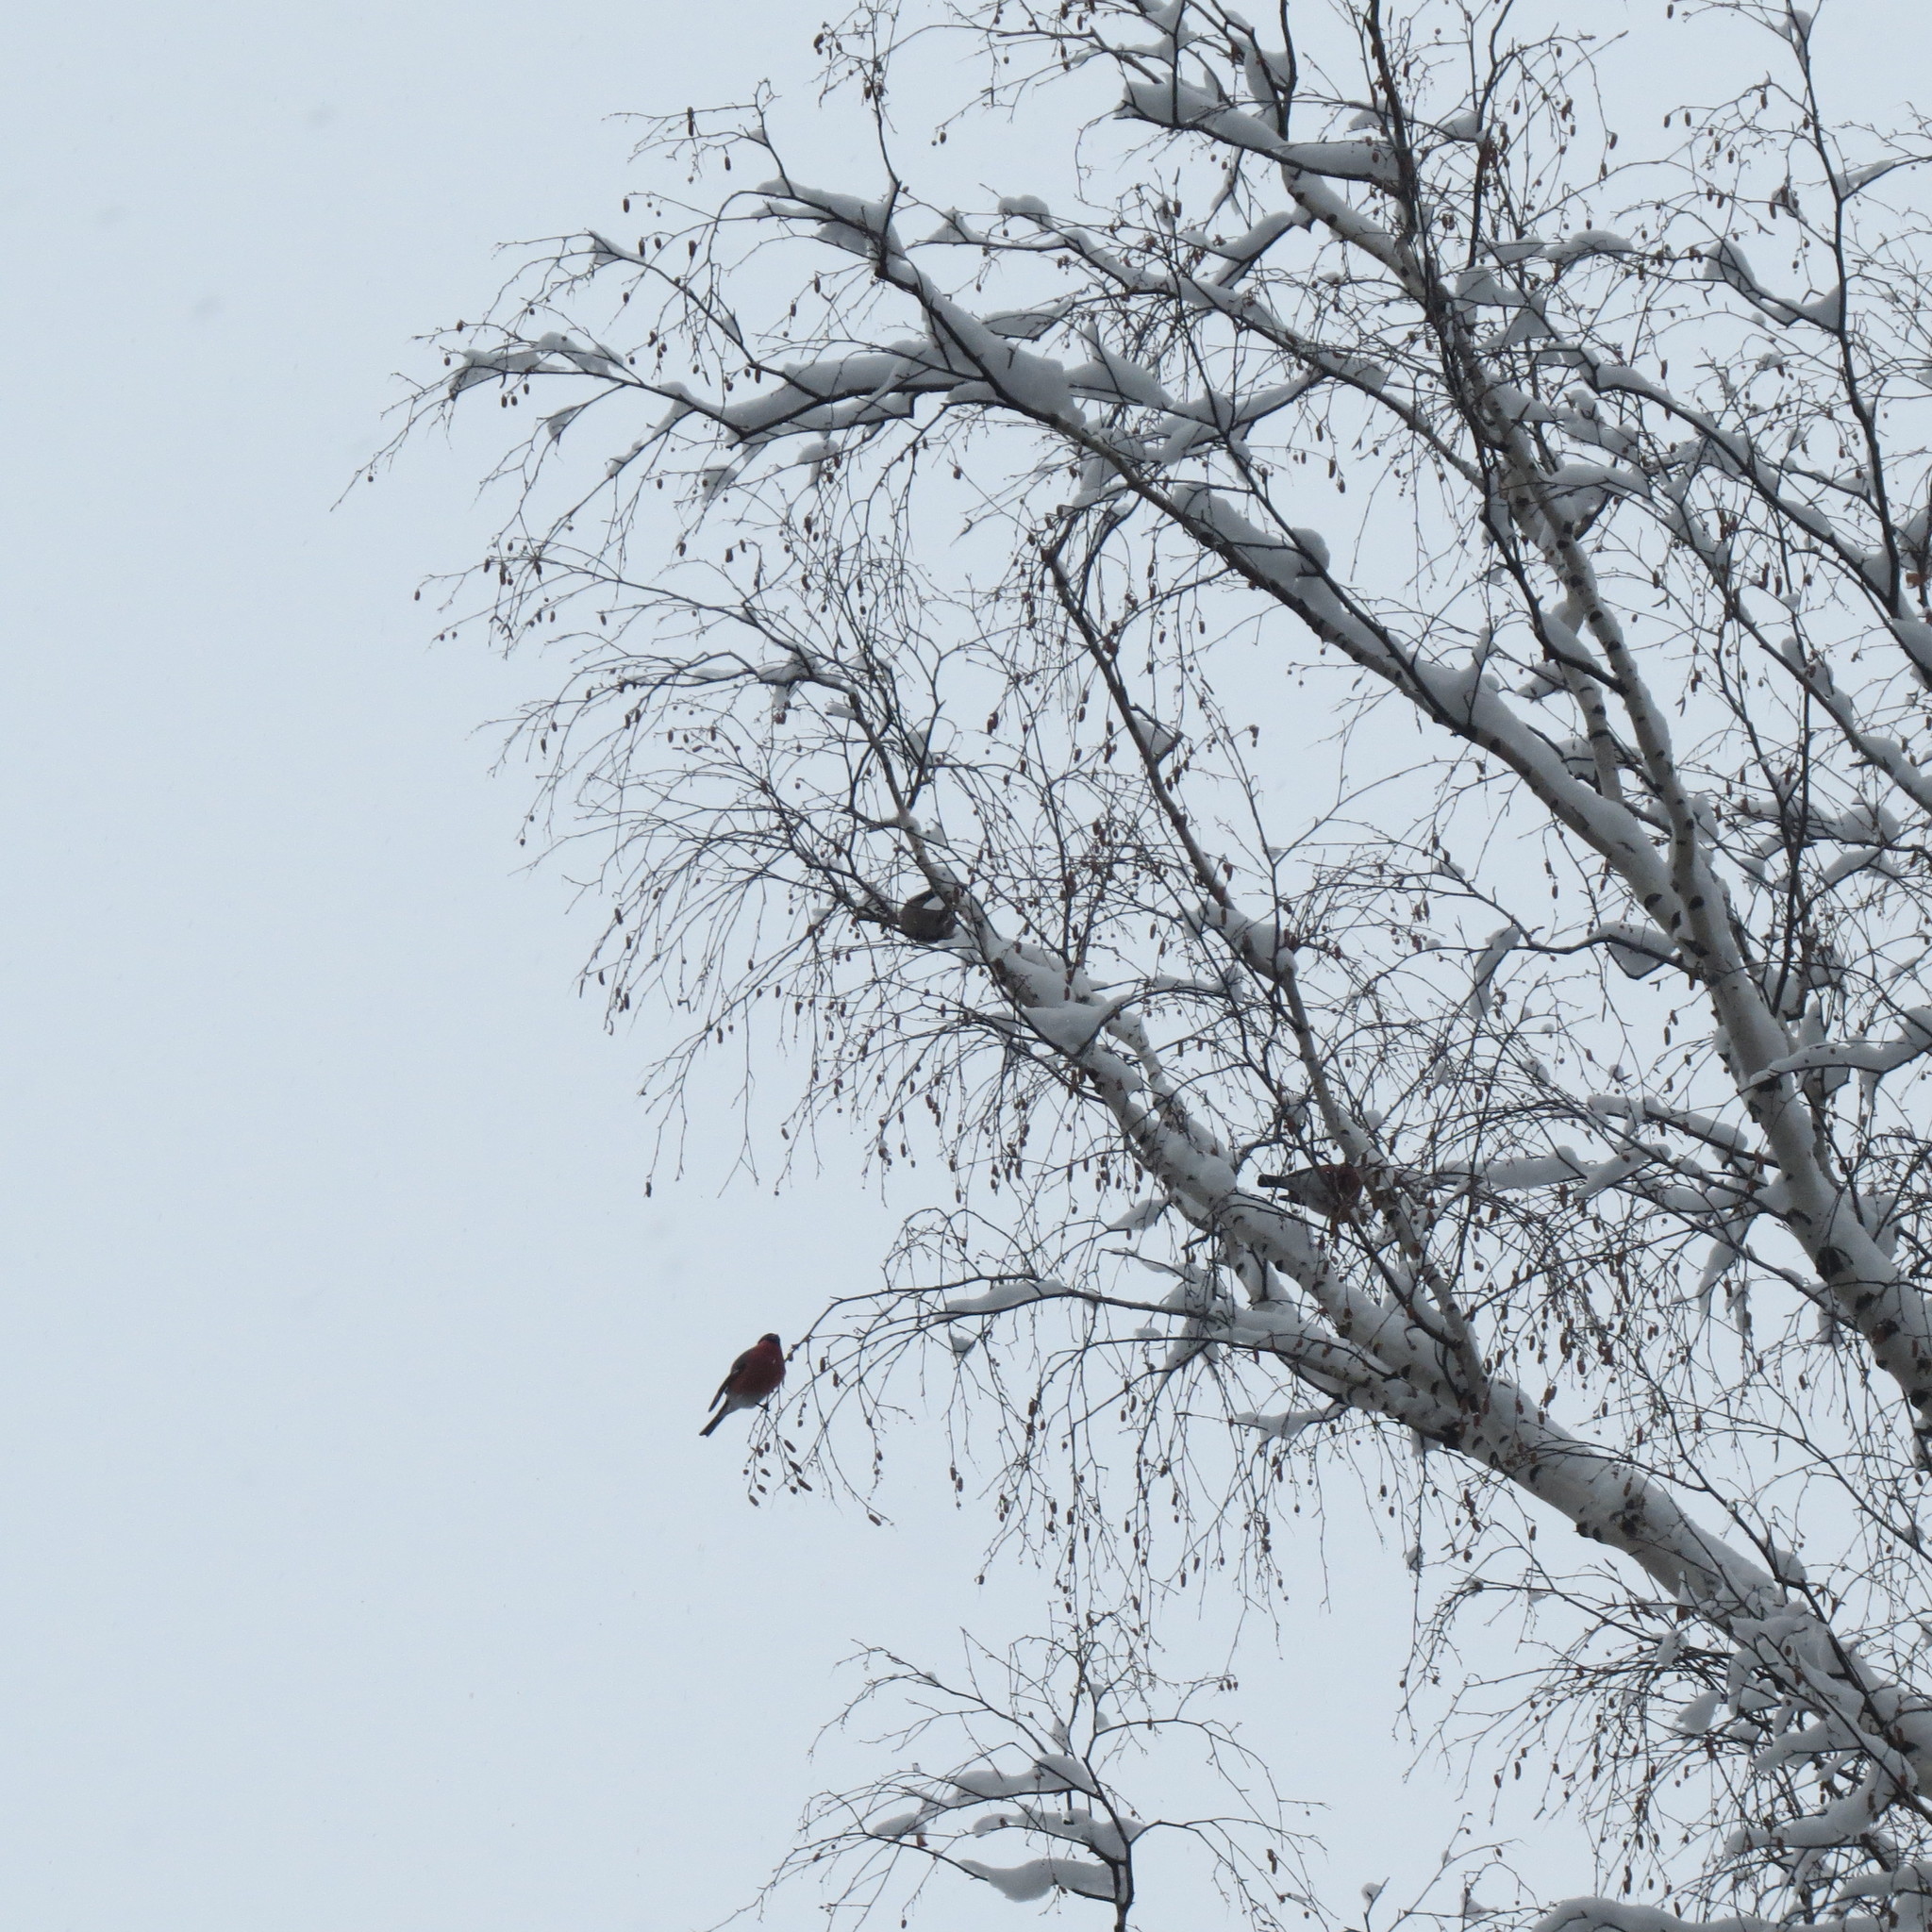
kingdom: Animalia
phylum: Chordata
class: Aves
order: Passeriformes
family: Fringillidae
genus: Pyrrhula
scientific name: Pyrrhula pyrrhula
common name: Eurasian bullfinch
